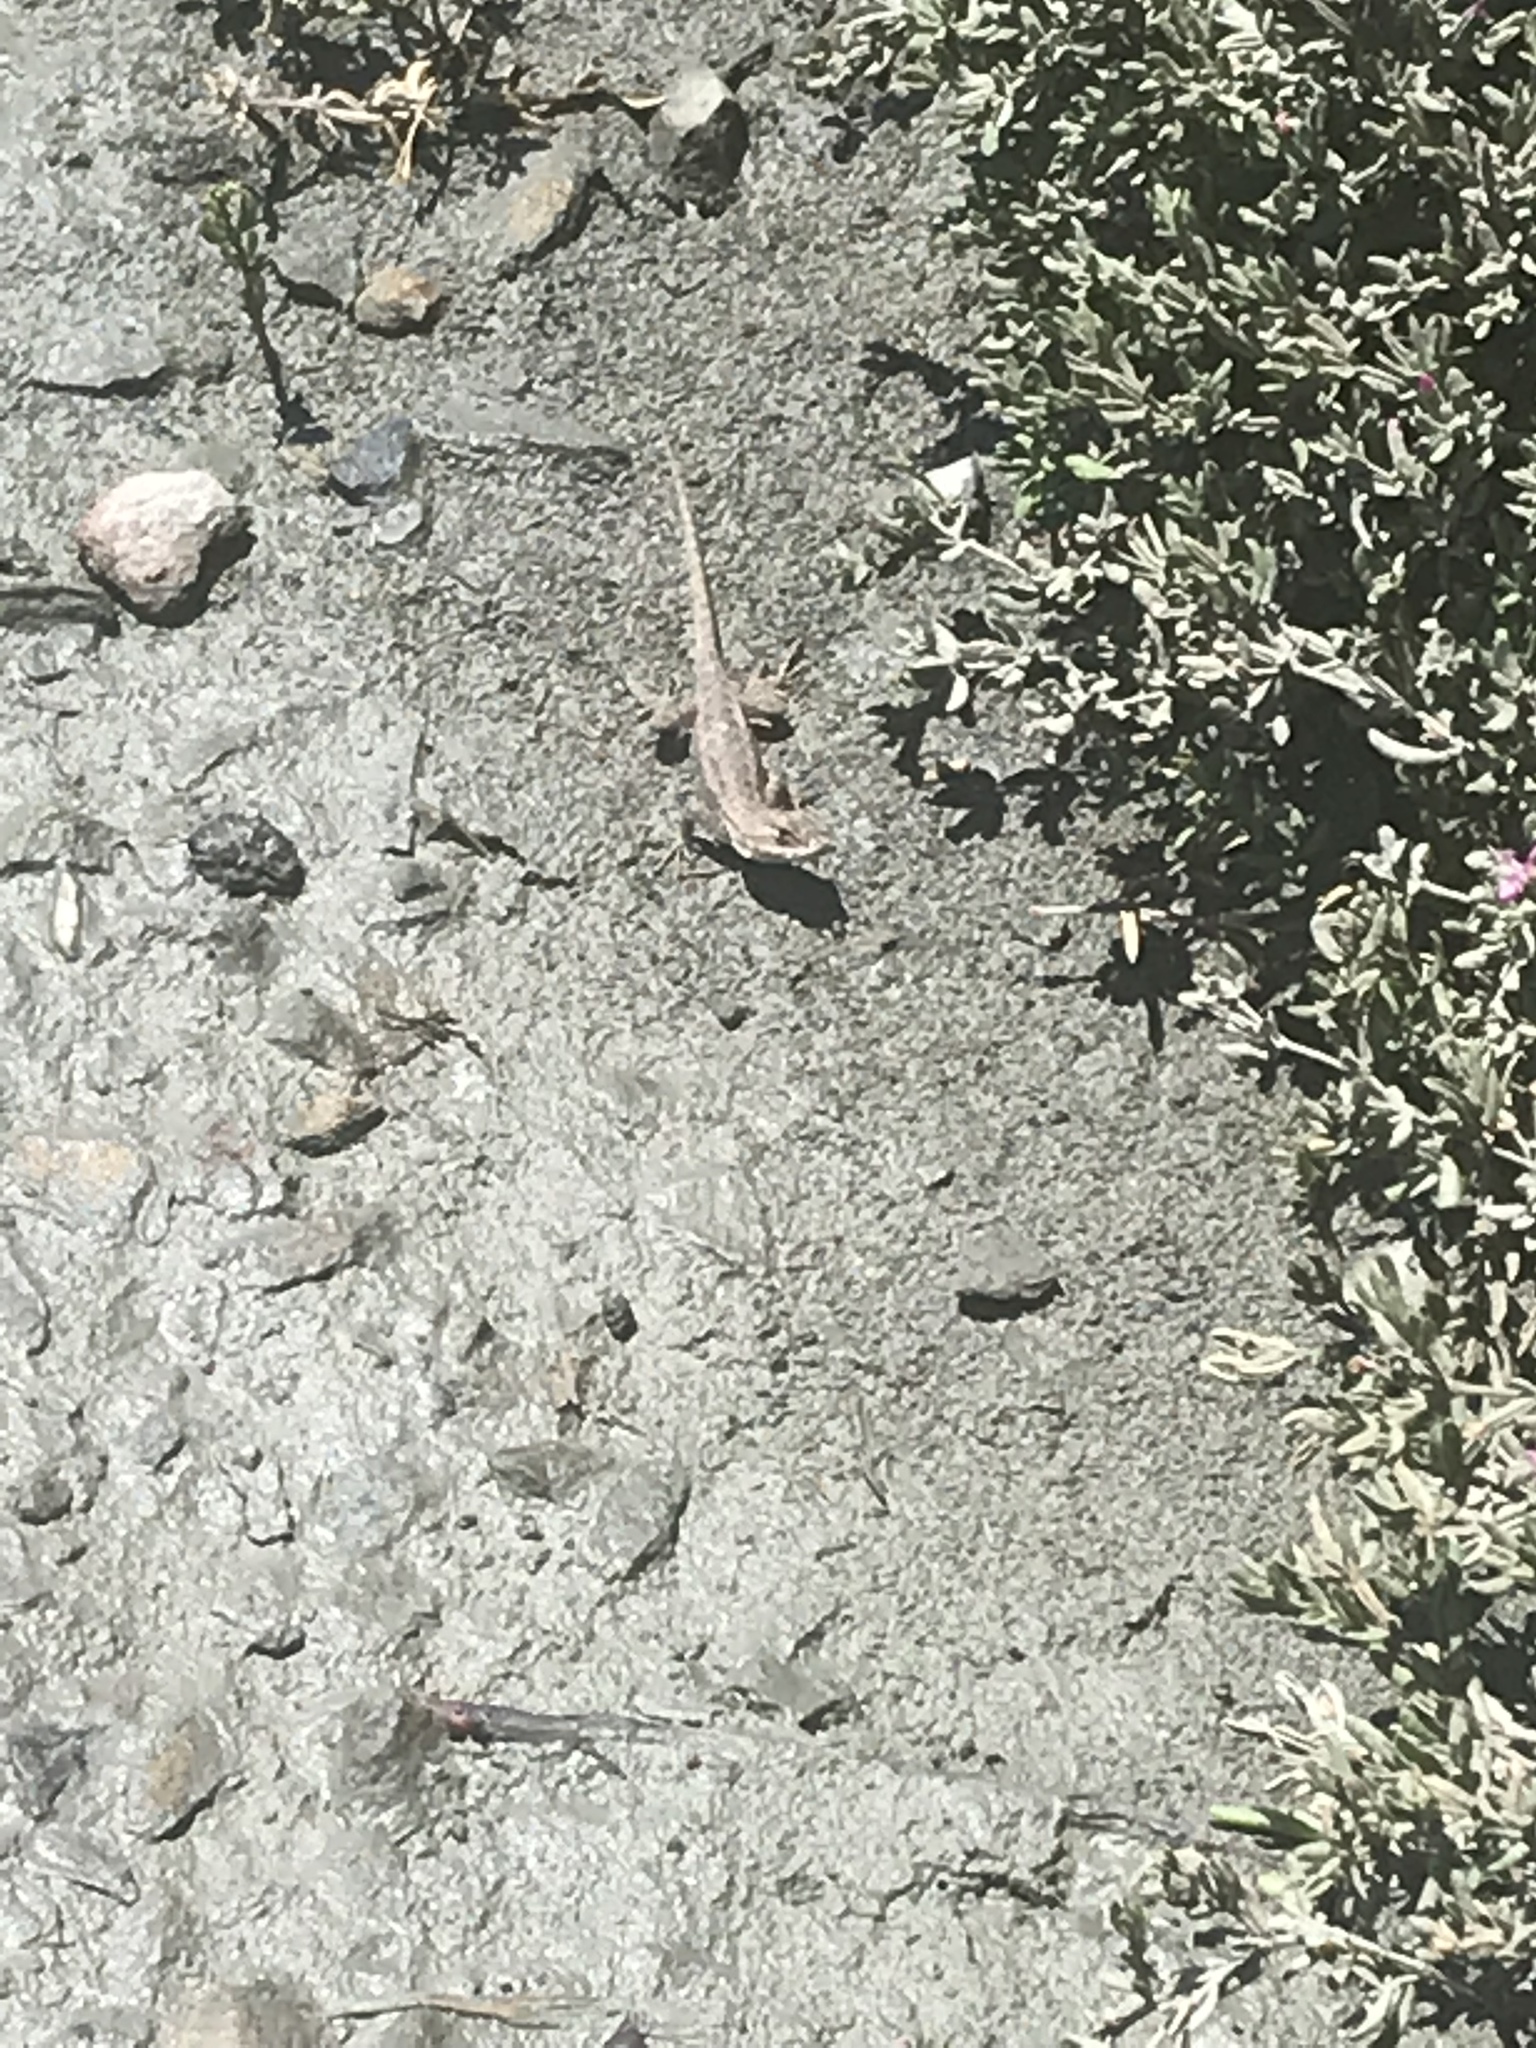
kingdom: Animalia
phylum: Chordata
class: Squamata
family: Phrynosomatidae
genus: Sceloporus
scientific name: Sceloporus occidentalis
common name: Western fence lizard
